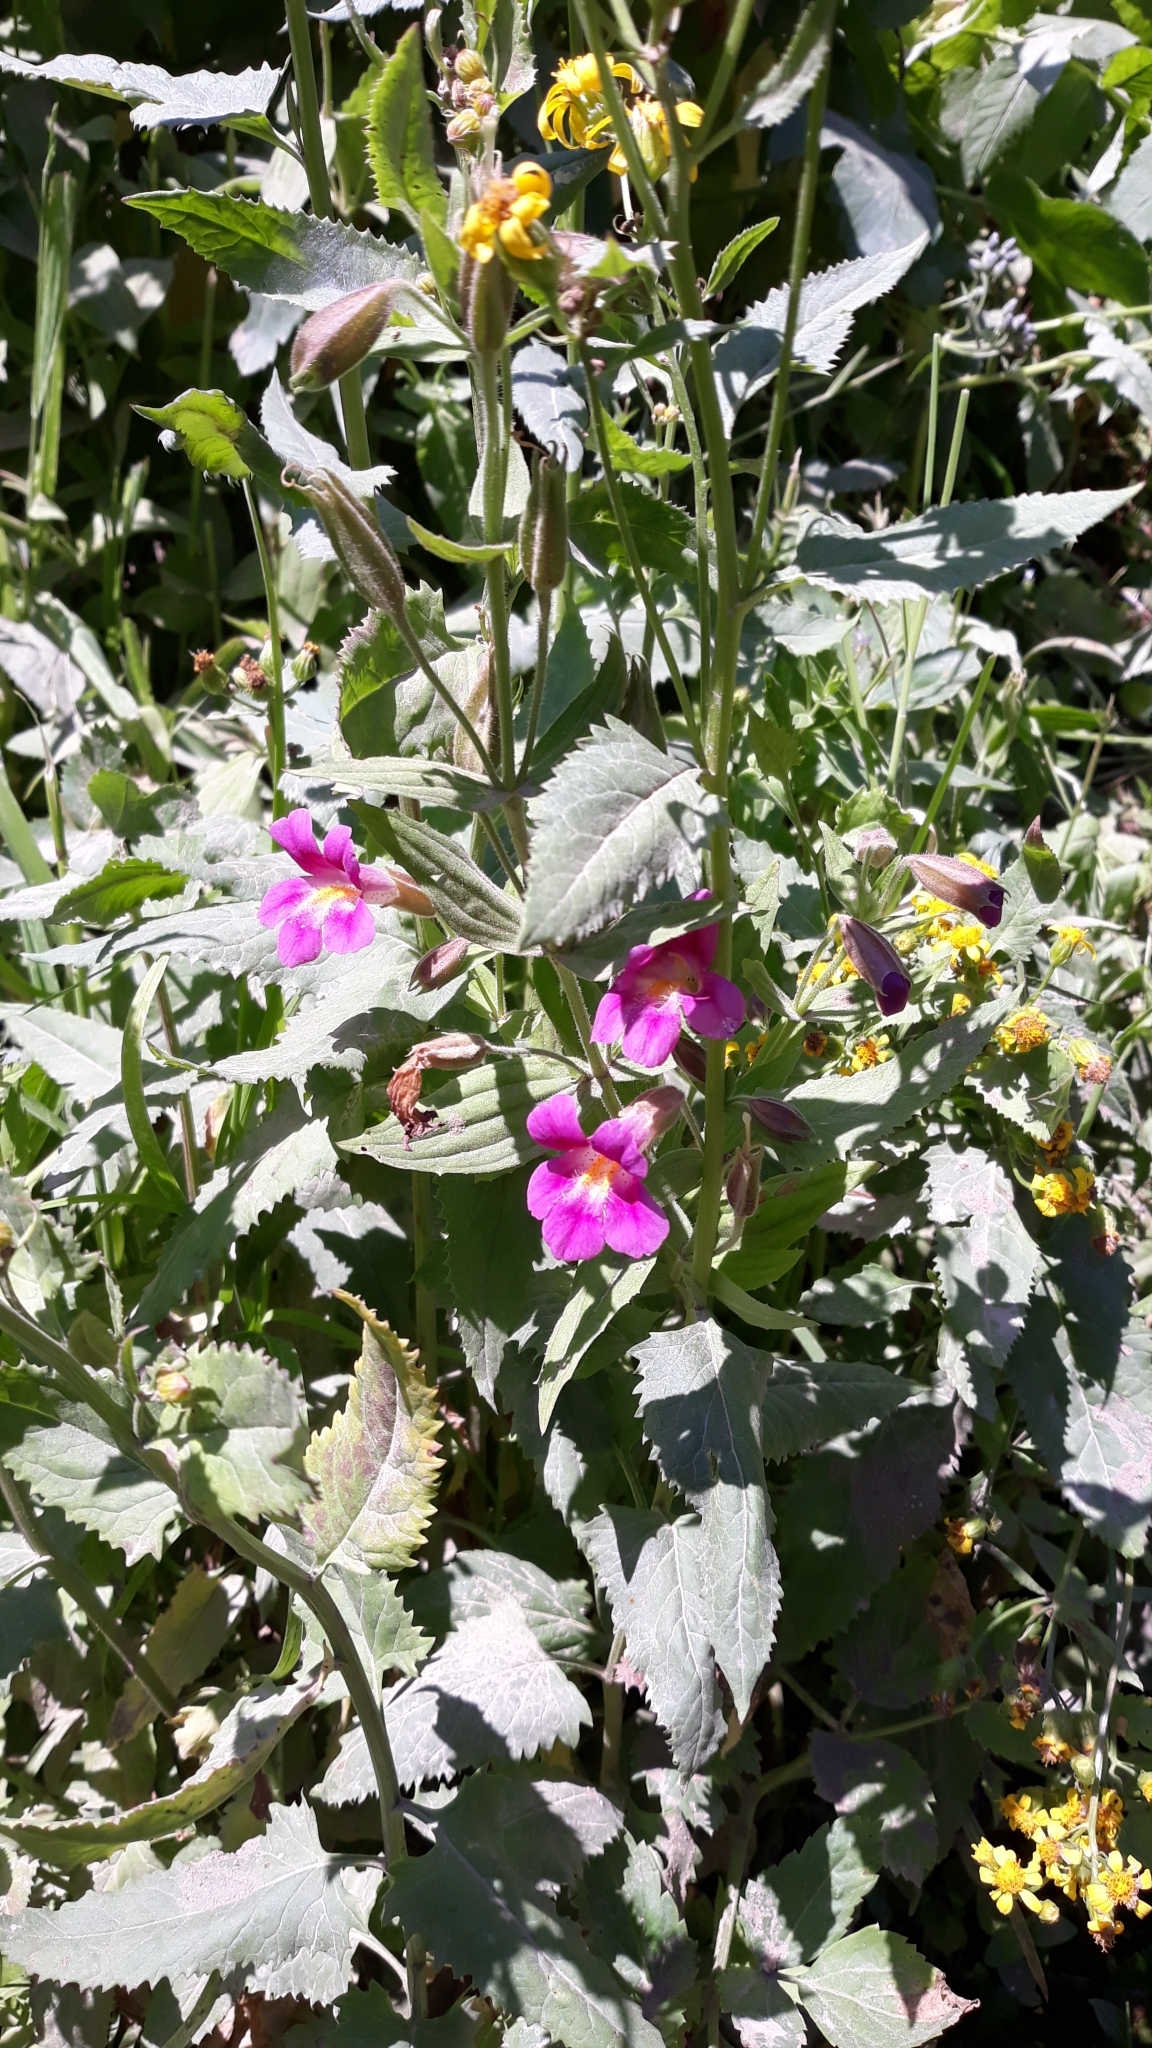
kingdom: Plantae
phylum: Tracheophyta
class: Magnoliopsida
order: Lamiales
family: Phrymaceae
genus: Erythranthe
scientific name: Erythranthe lewisii
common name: Lewis's monkey-flower
